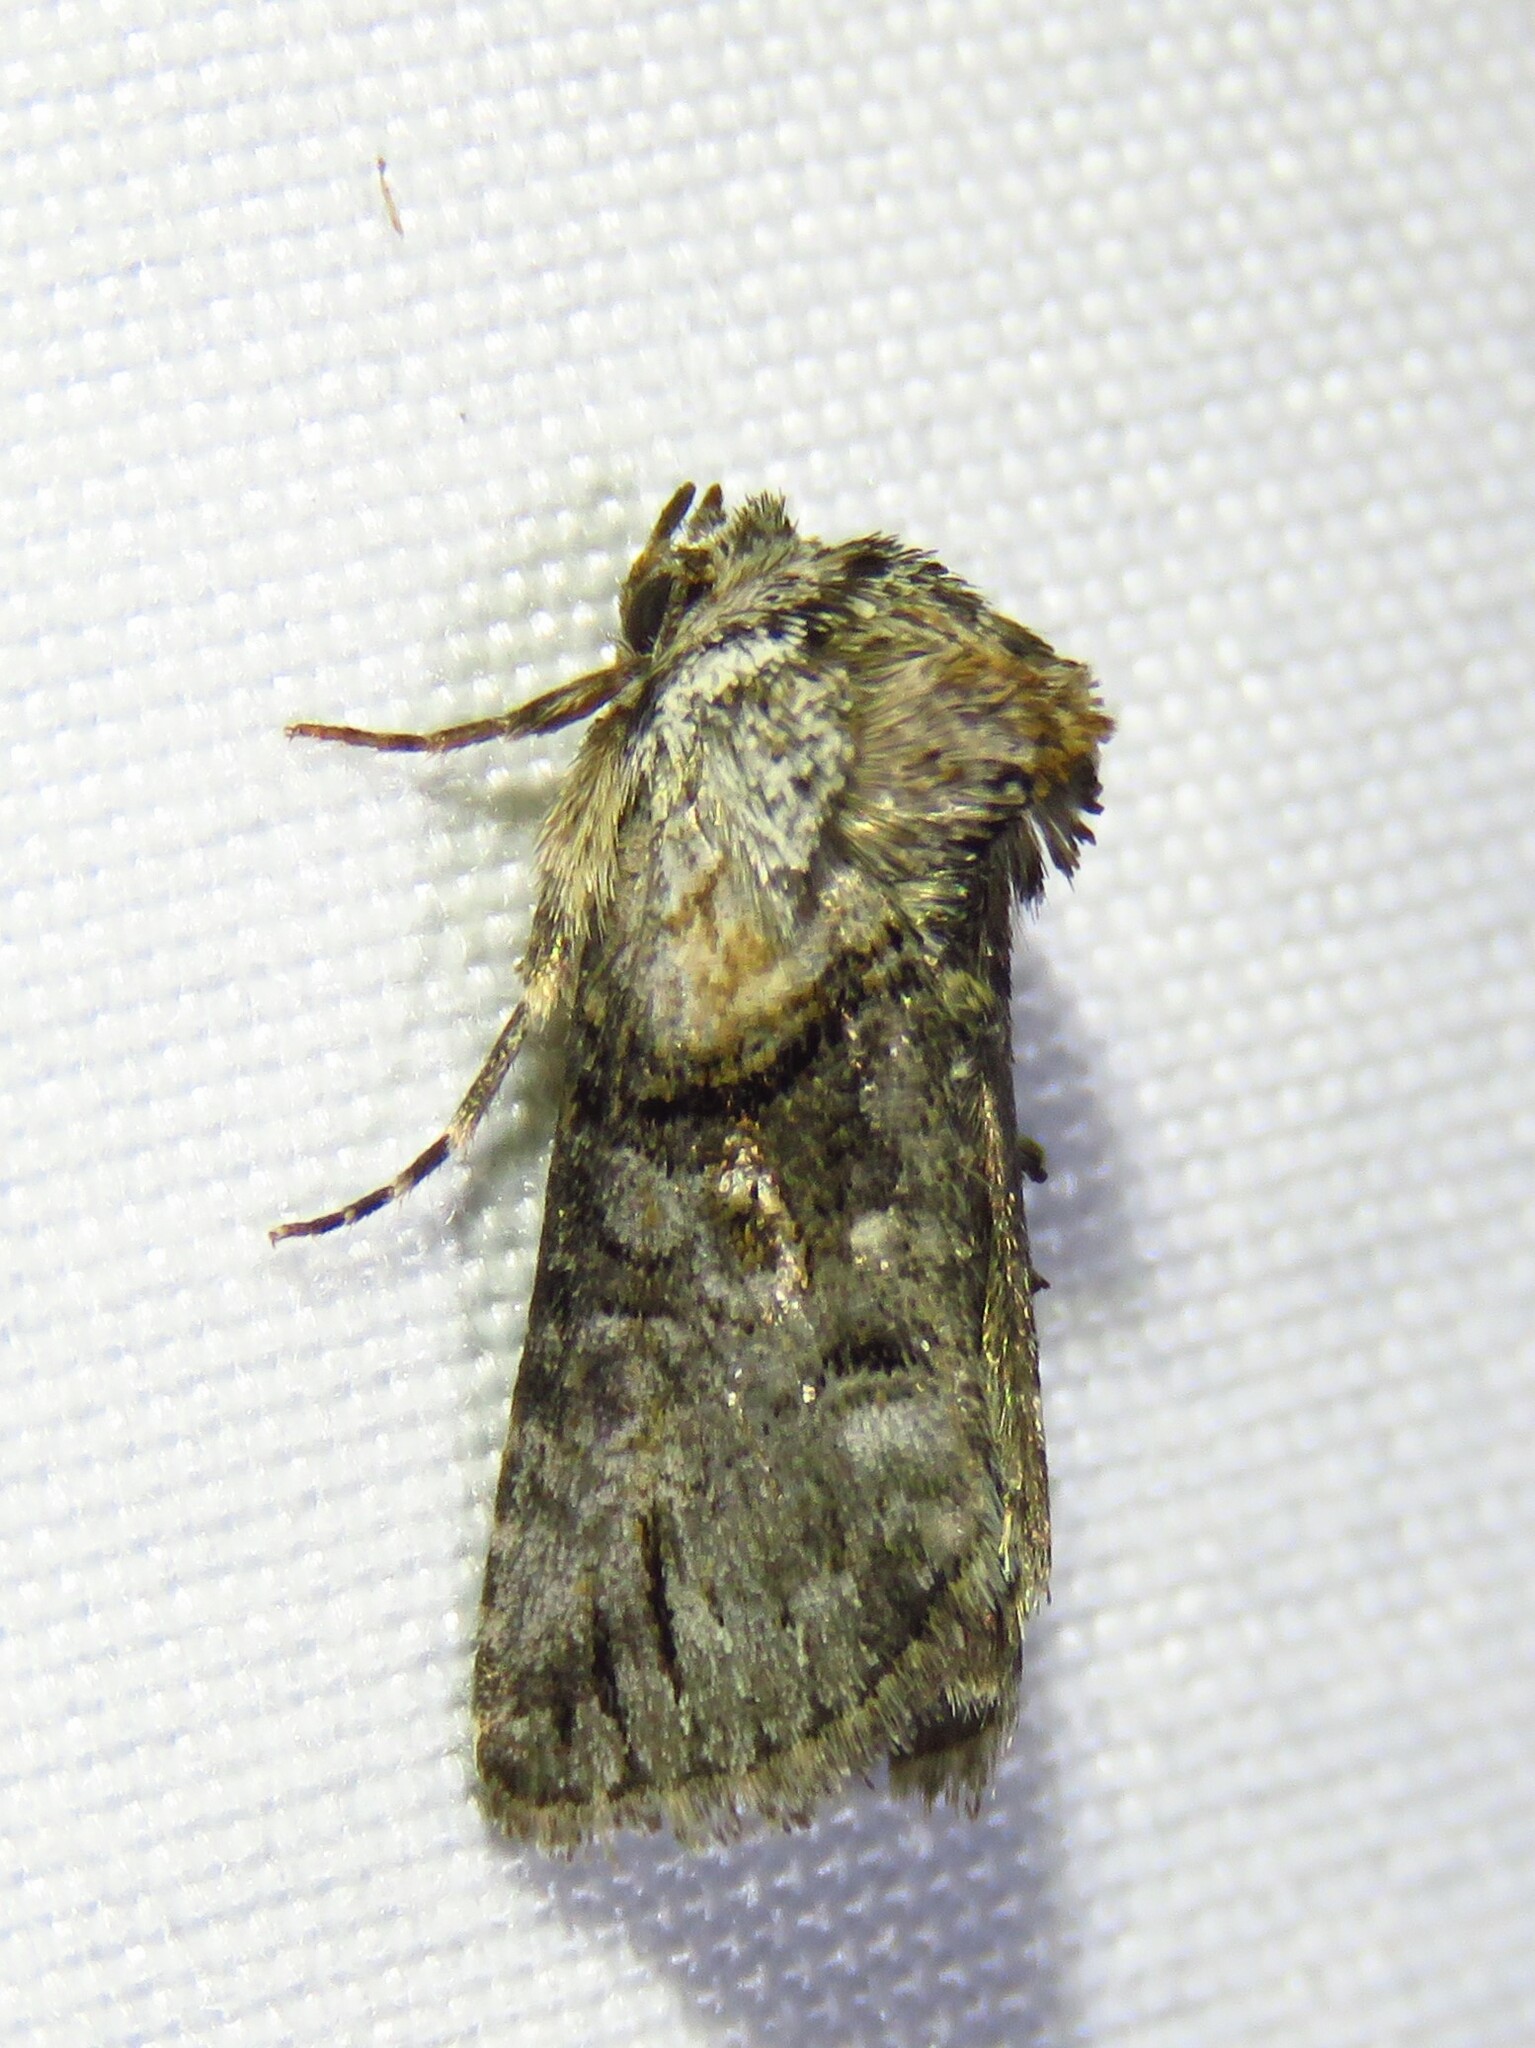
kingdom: Animalia
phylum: Arthropoda
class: Insecta
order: Lepidoptera
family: Noctuidae
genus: Abrostola
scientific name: Abrostola microvalis
